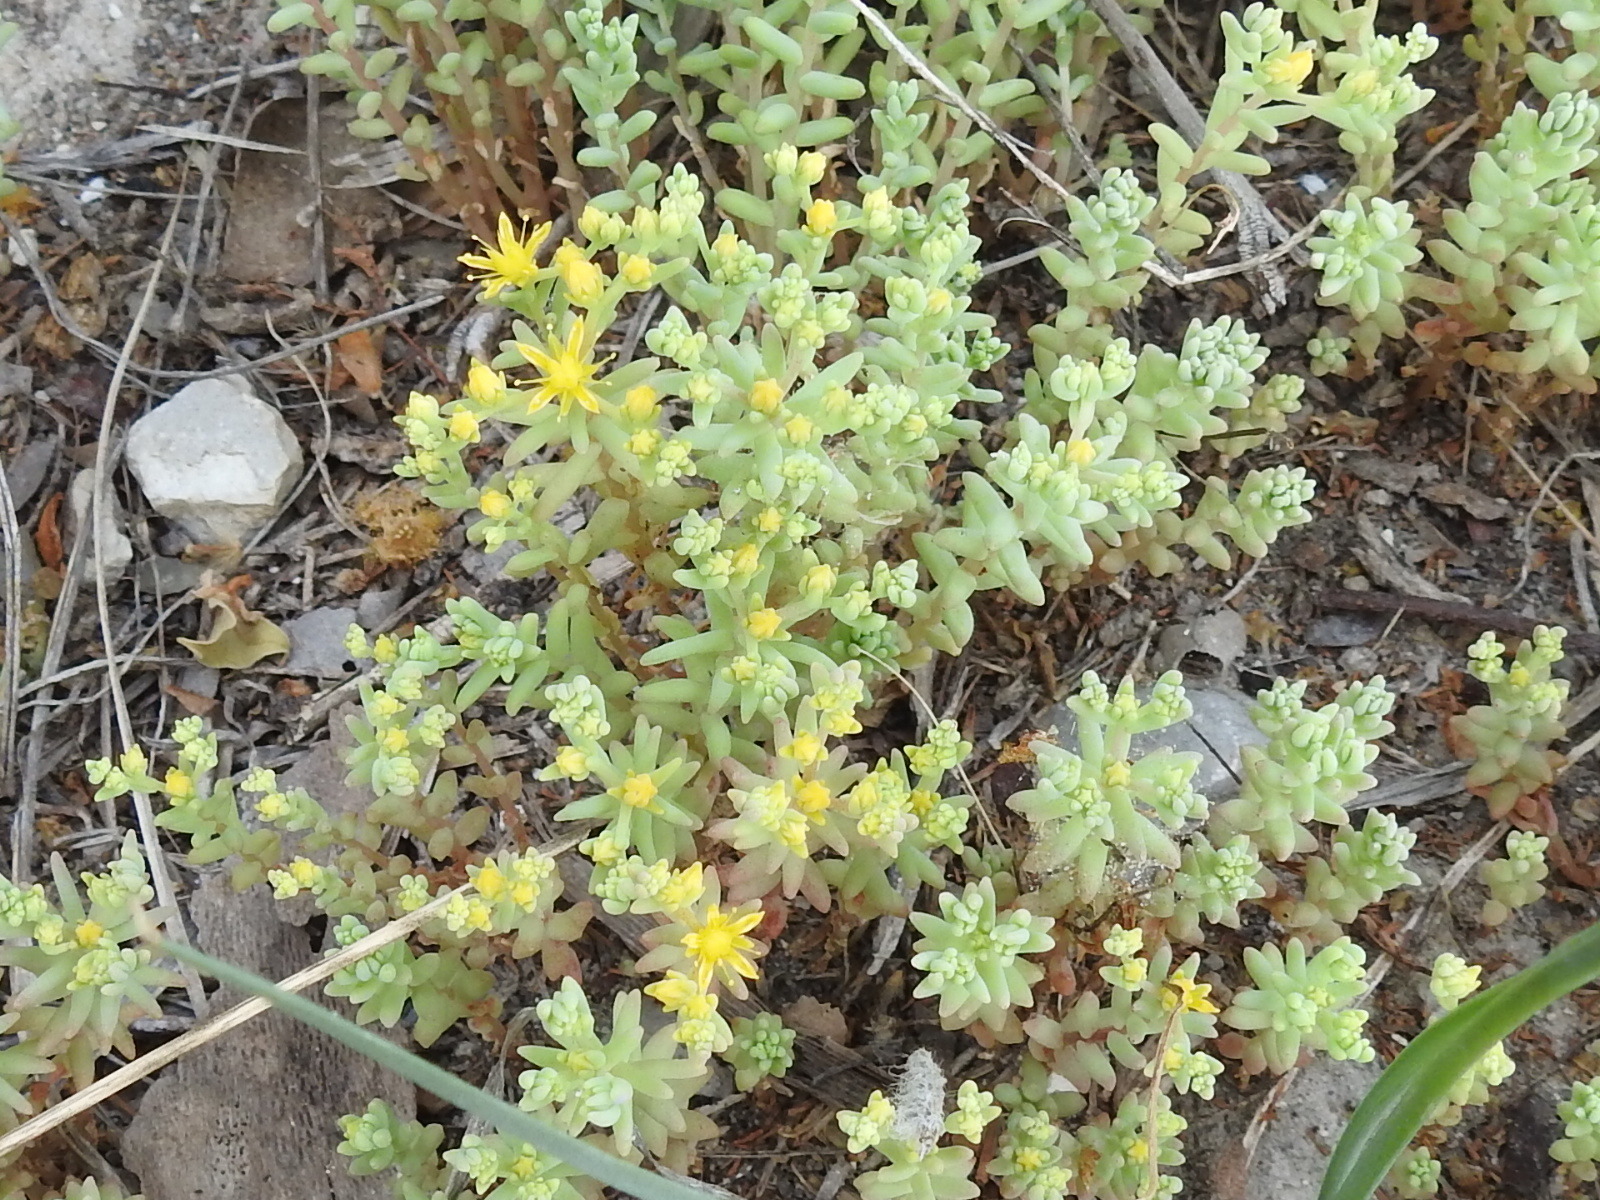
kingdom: Plantae
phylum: Tracheophyta
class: Magnoliopsida
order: Saxifragales
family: Crassulaceae
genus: Sedum
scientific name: Sedum nuttallii
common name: Yellow stonecrop
